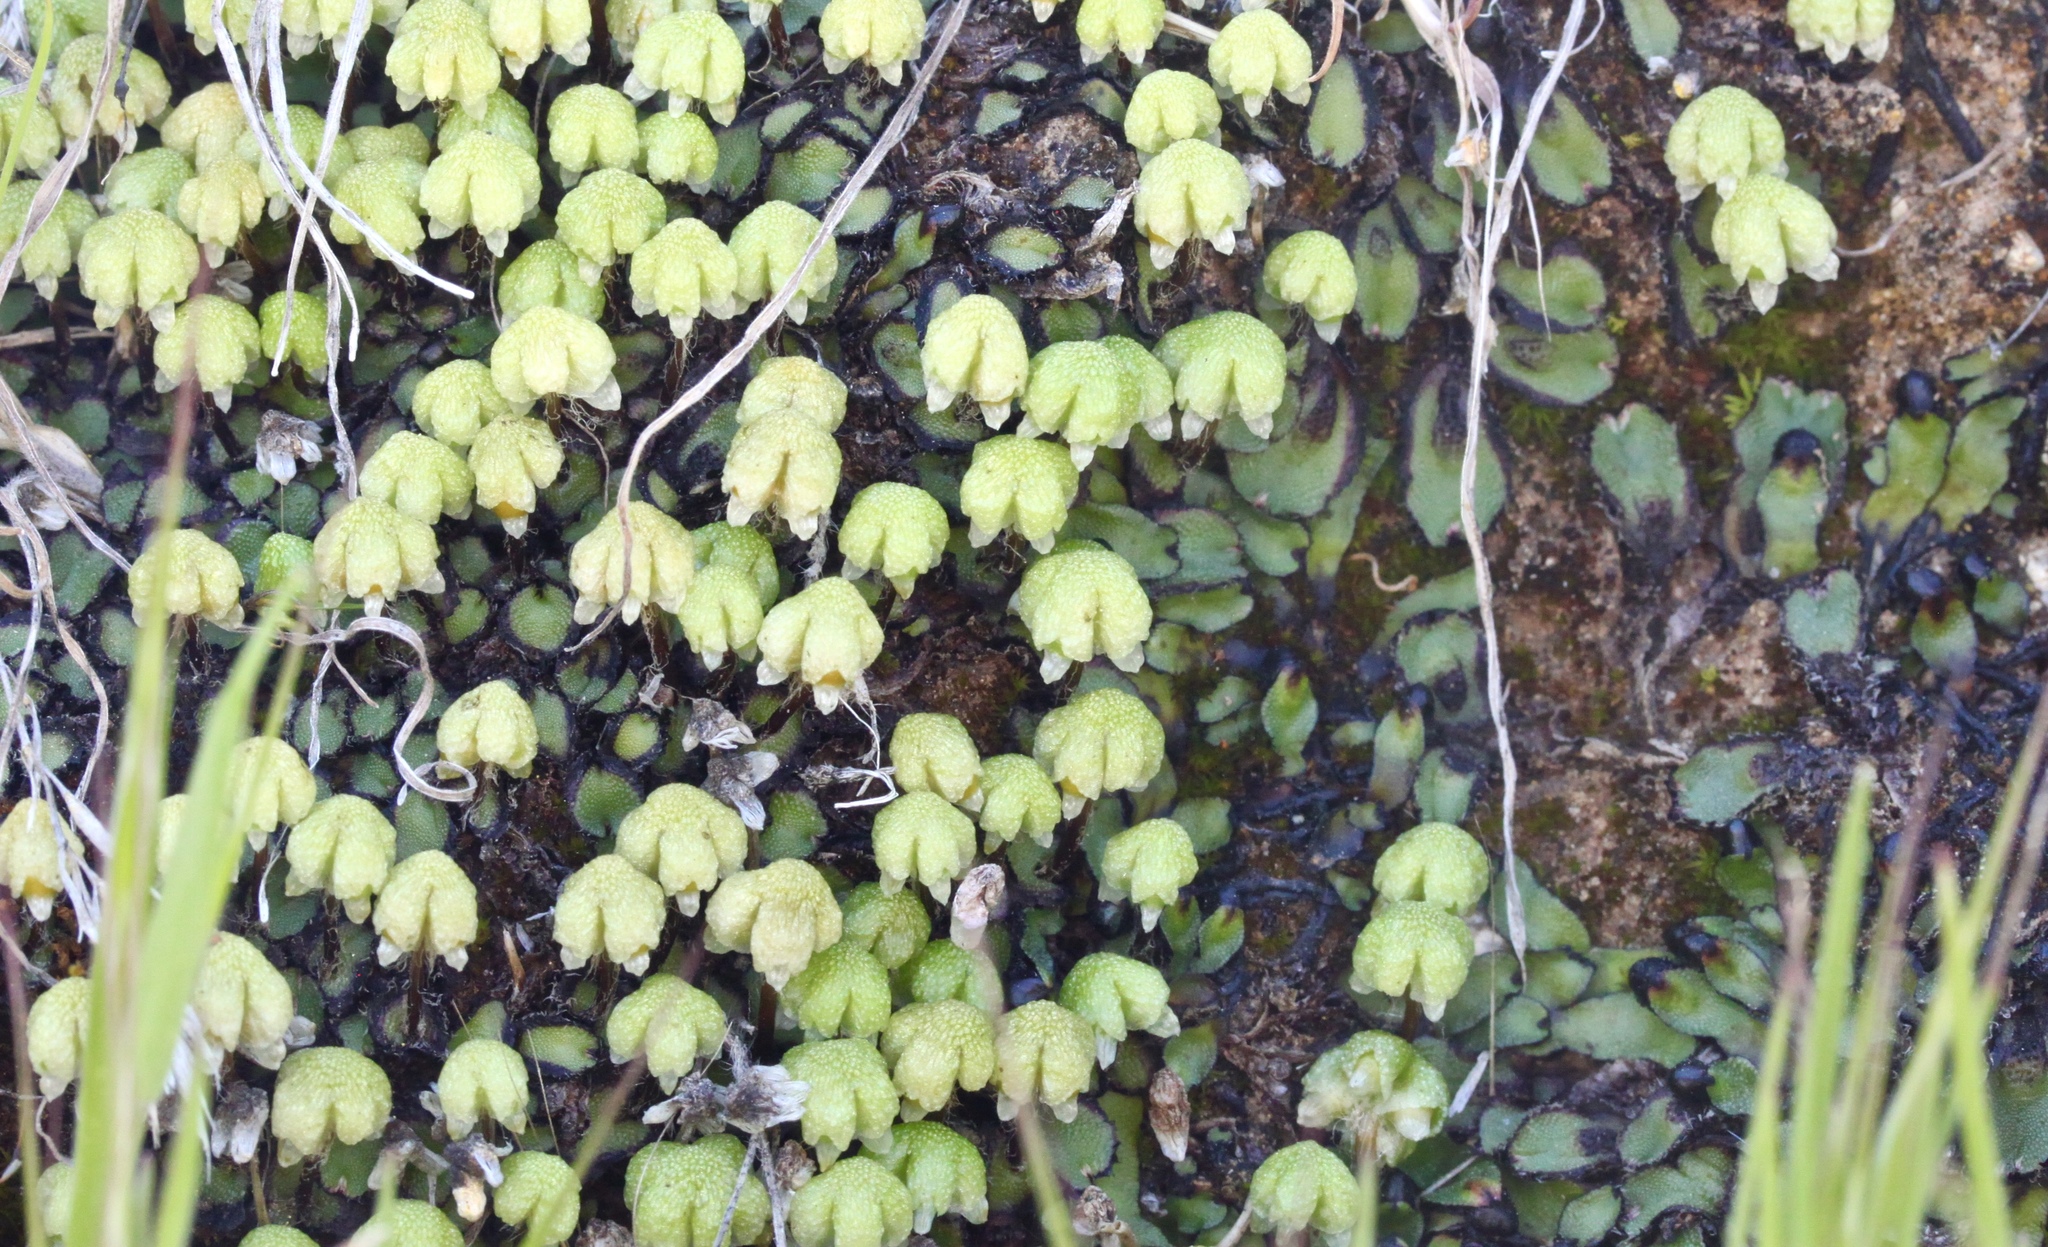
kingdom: Plantae
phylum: Marchantiophyta
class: Marchantiopsida
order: Marchantiales
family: Aytoniaceae
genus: Asterella
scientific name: Asterella californica
